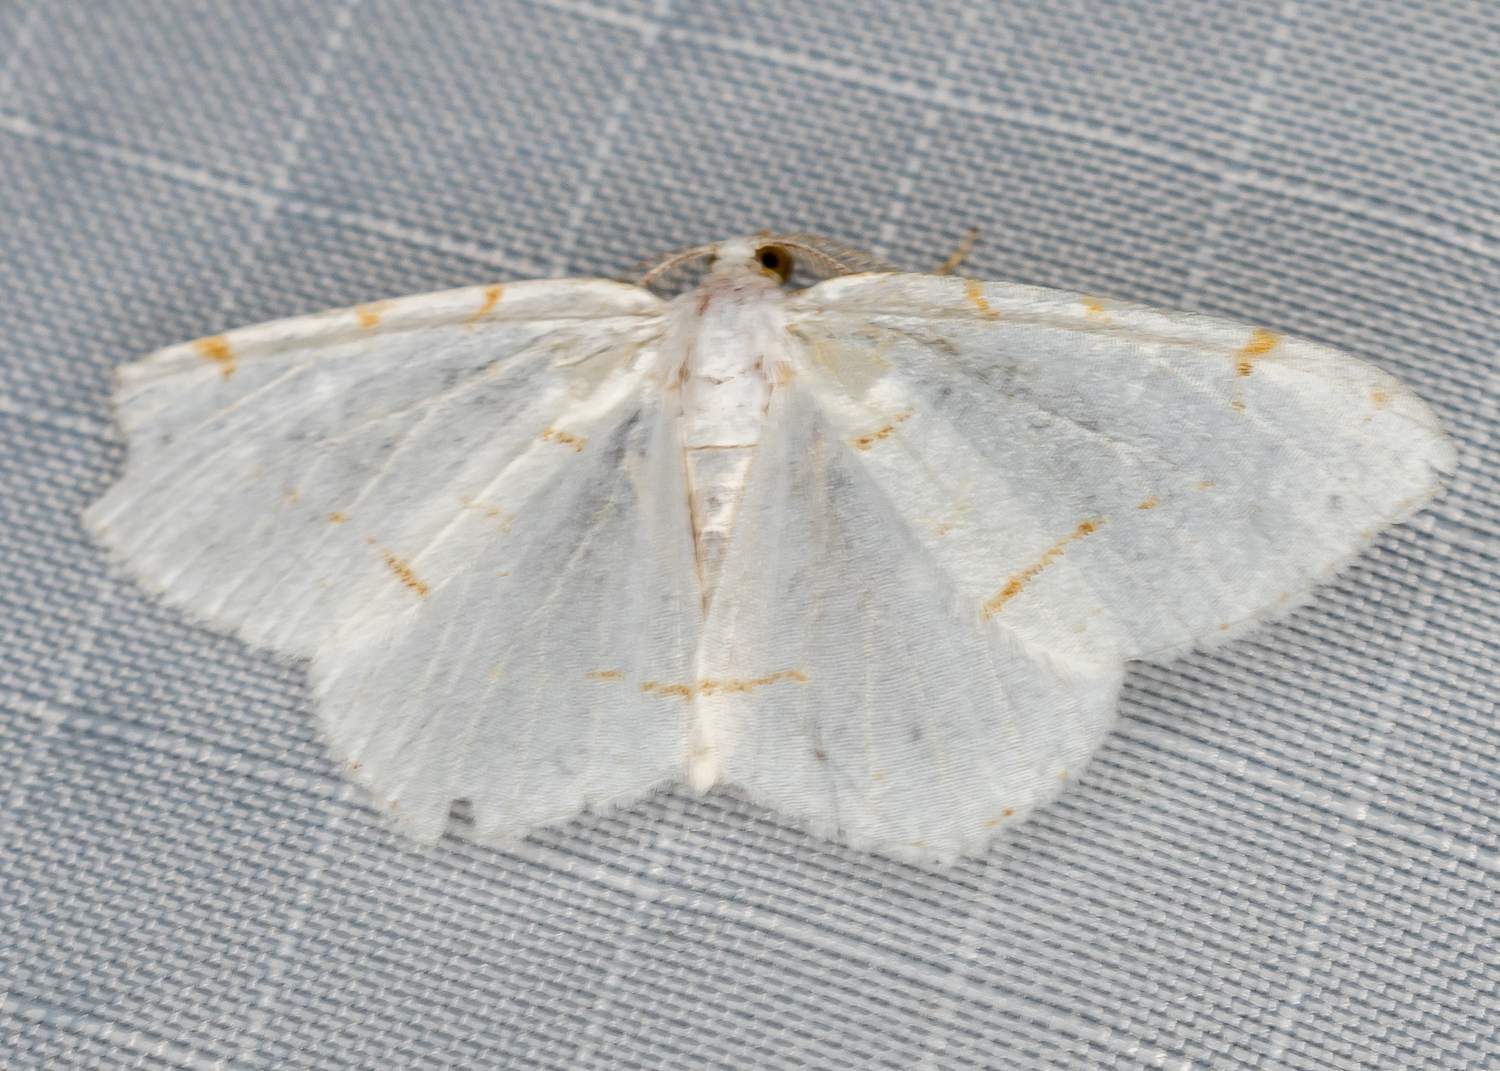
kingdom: Animalia
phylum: Arthropoda
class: Insecta
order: Lepidoptera
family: Geometridae
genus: Macaria
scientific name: Macaria pustularia
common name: Lesser maple spanworm moth
